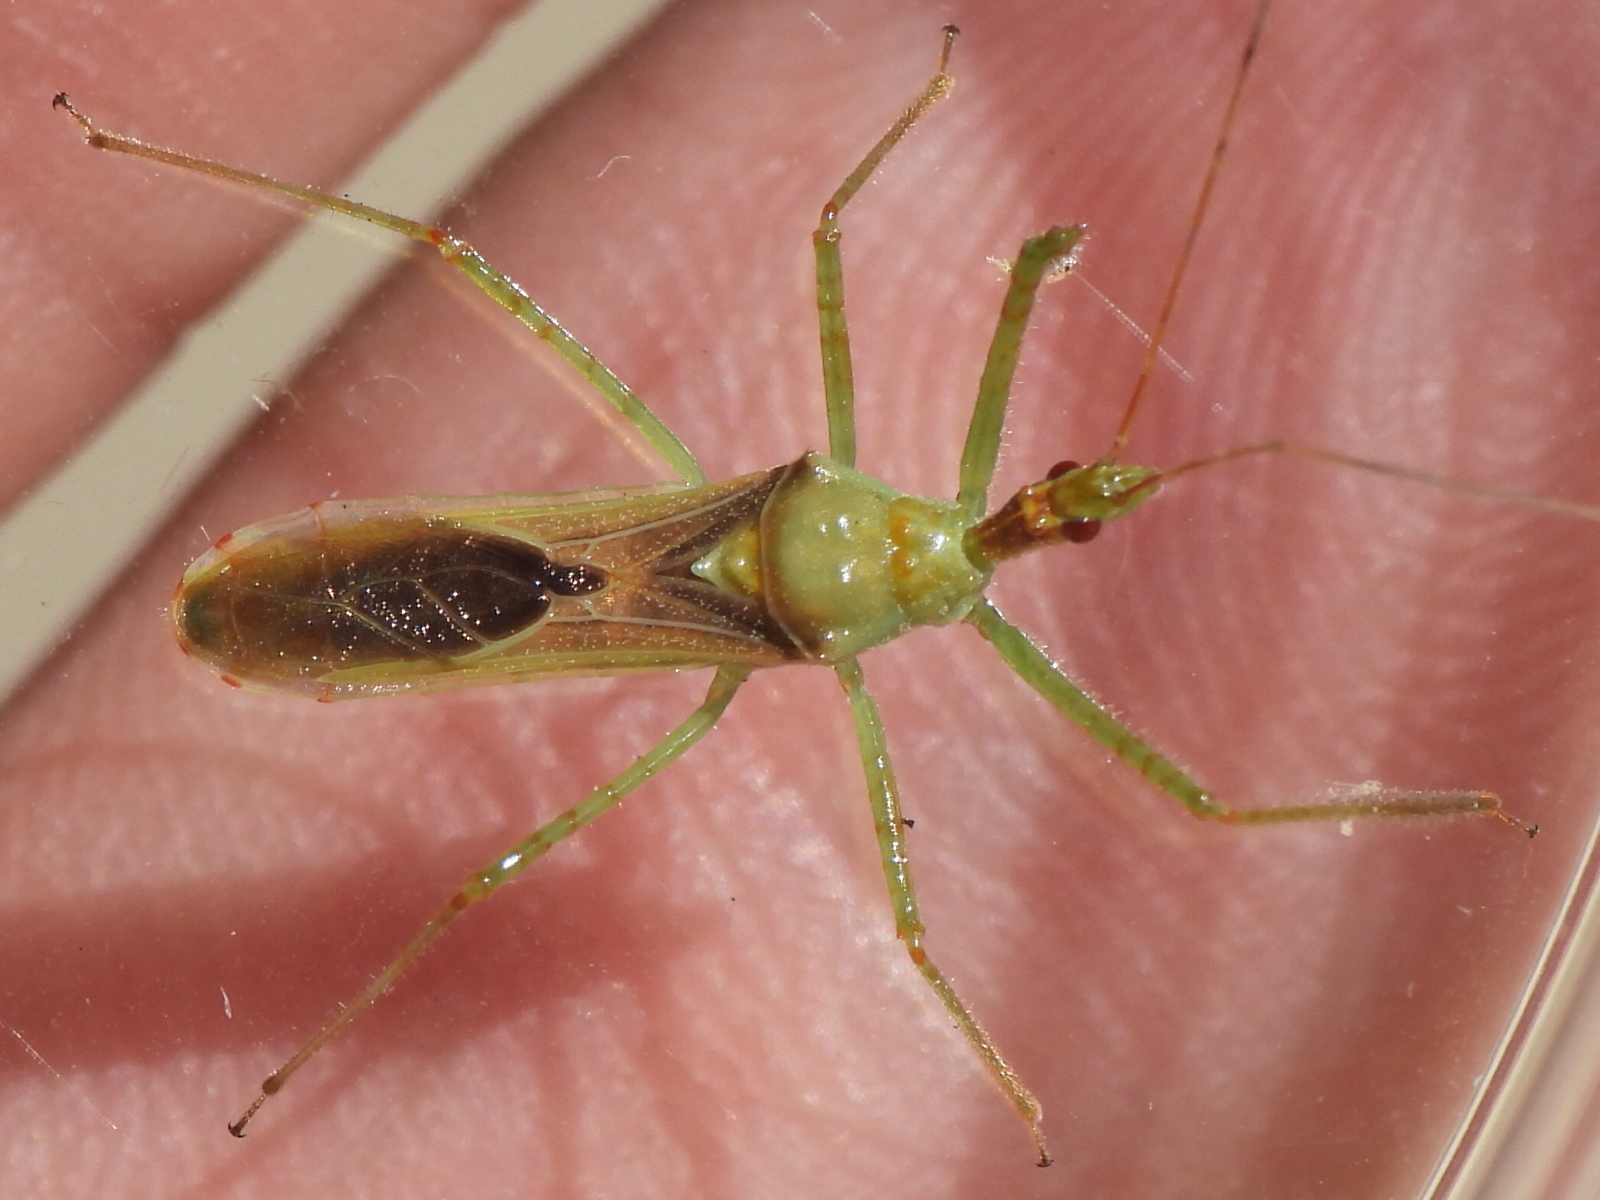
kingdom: Animalia
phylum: Arthropoda
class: Insecta
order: Hemiptera
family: Reduviidae
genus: Zelus
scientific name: Zelus renardii
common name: Assassin bug
